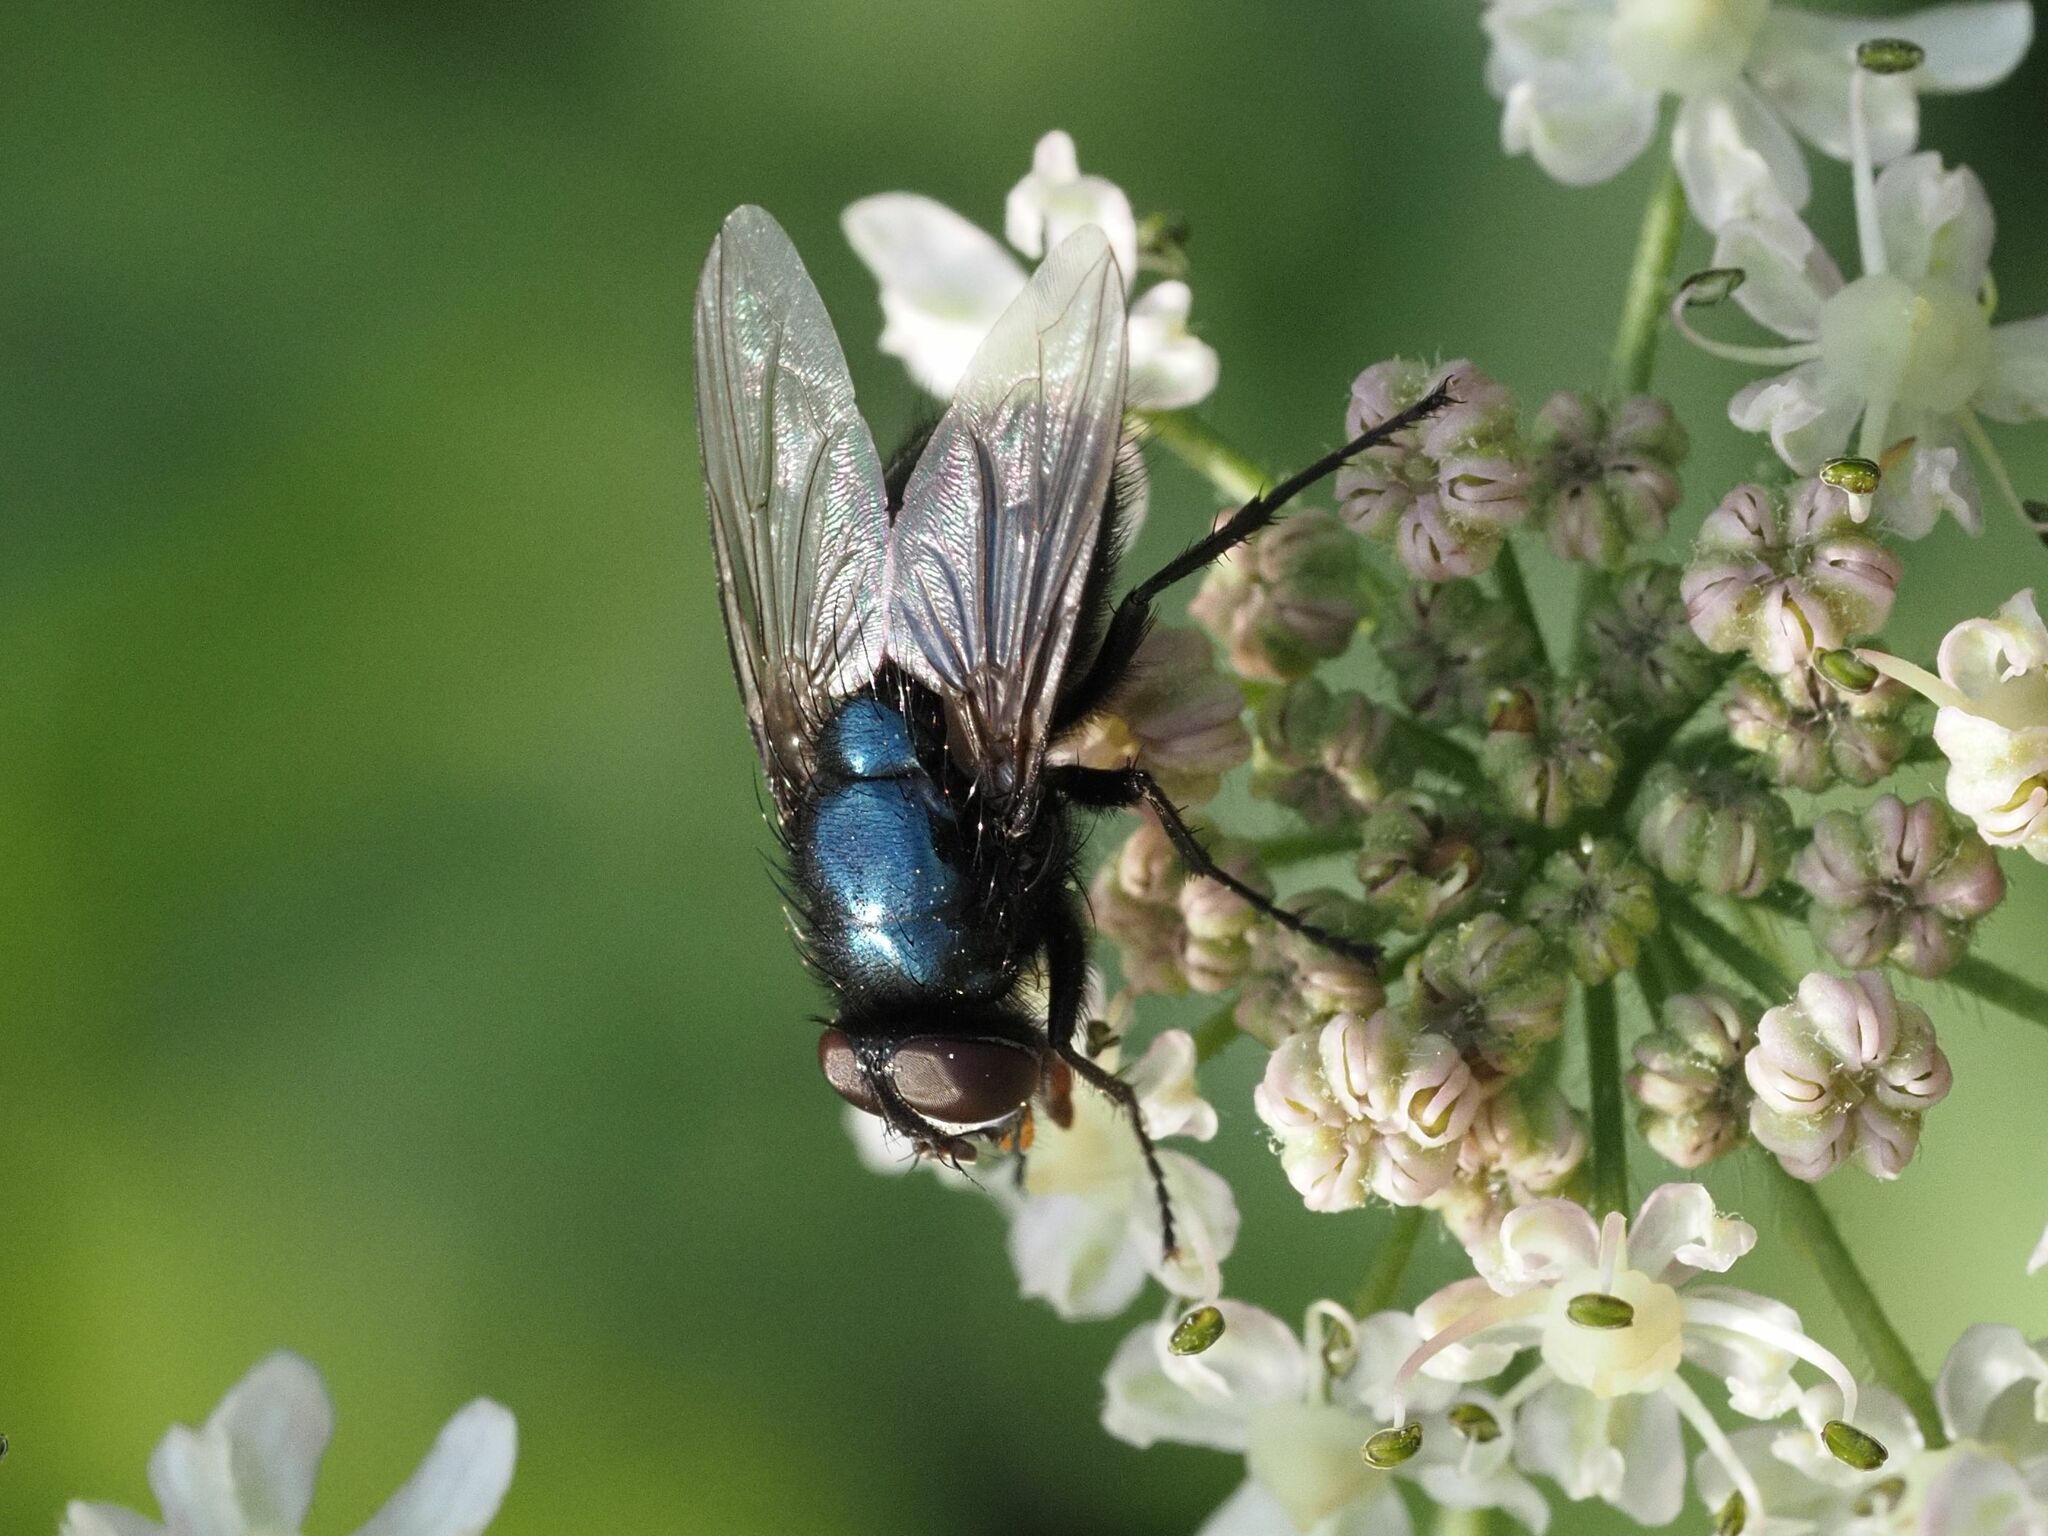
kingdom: Animalia
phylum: Arthropoda
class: Insecta
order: Diptera
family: Calliphoridae
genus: Protophormia
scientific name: Protophormia terraenovae
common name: Blackbottle
